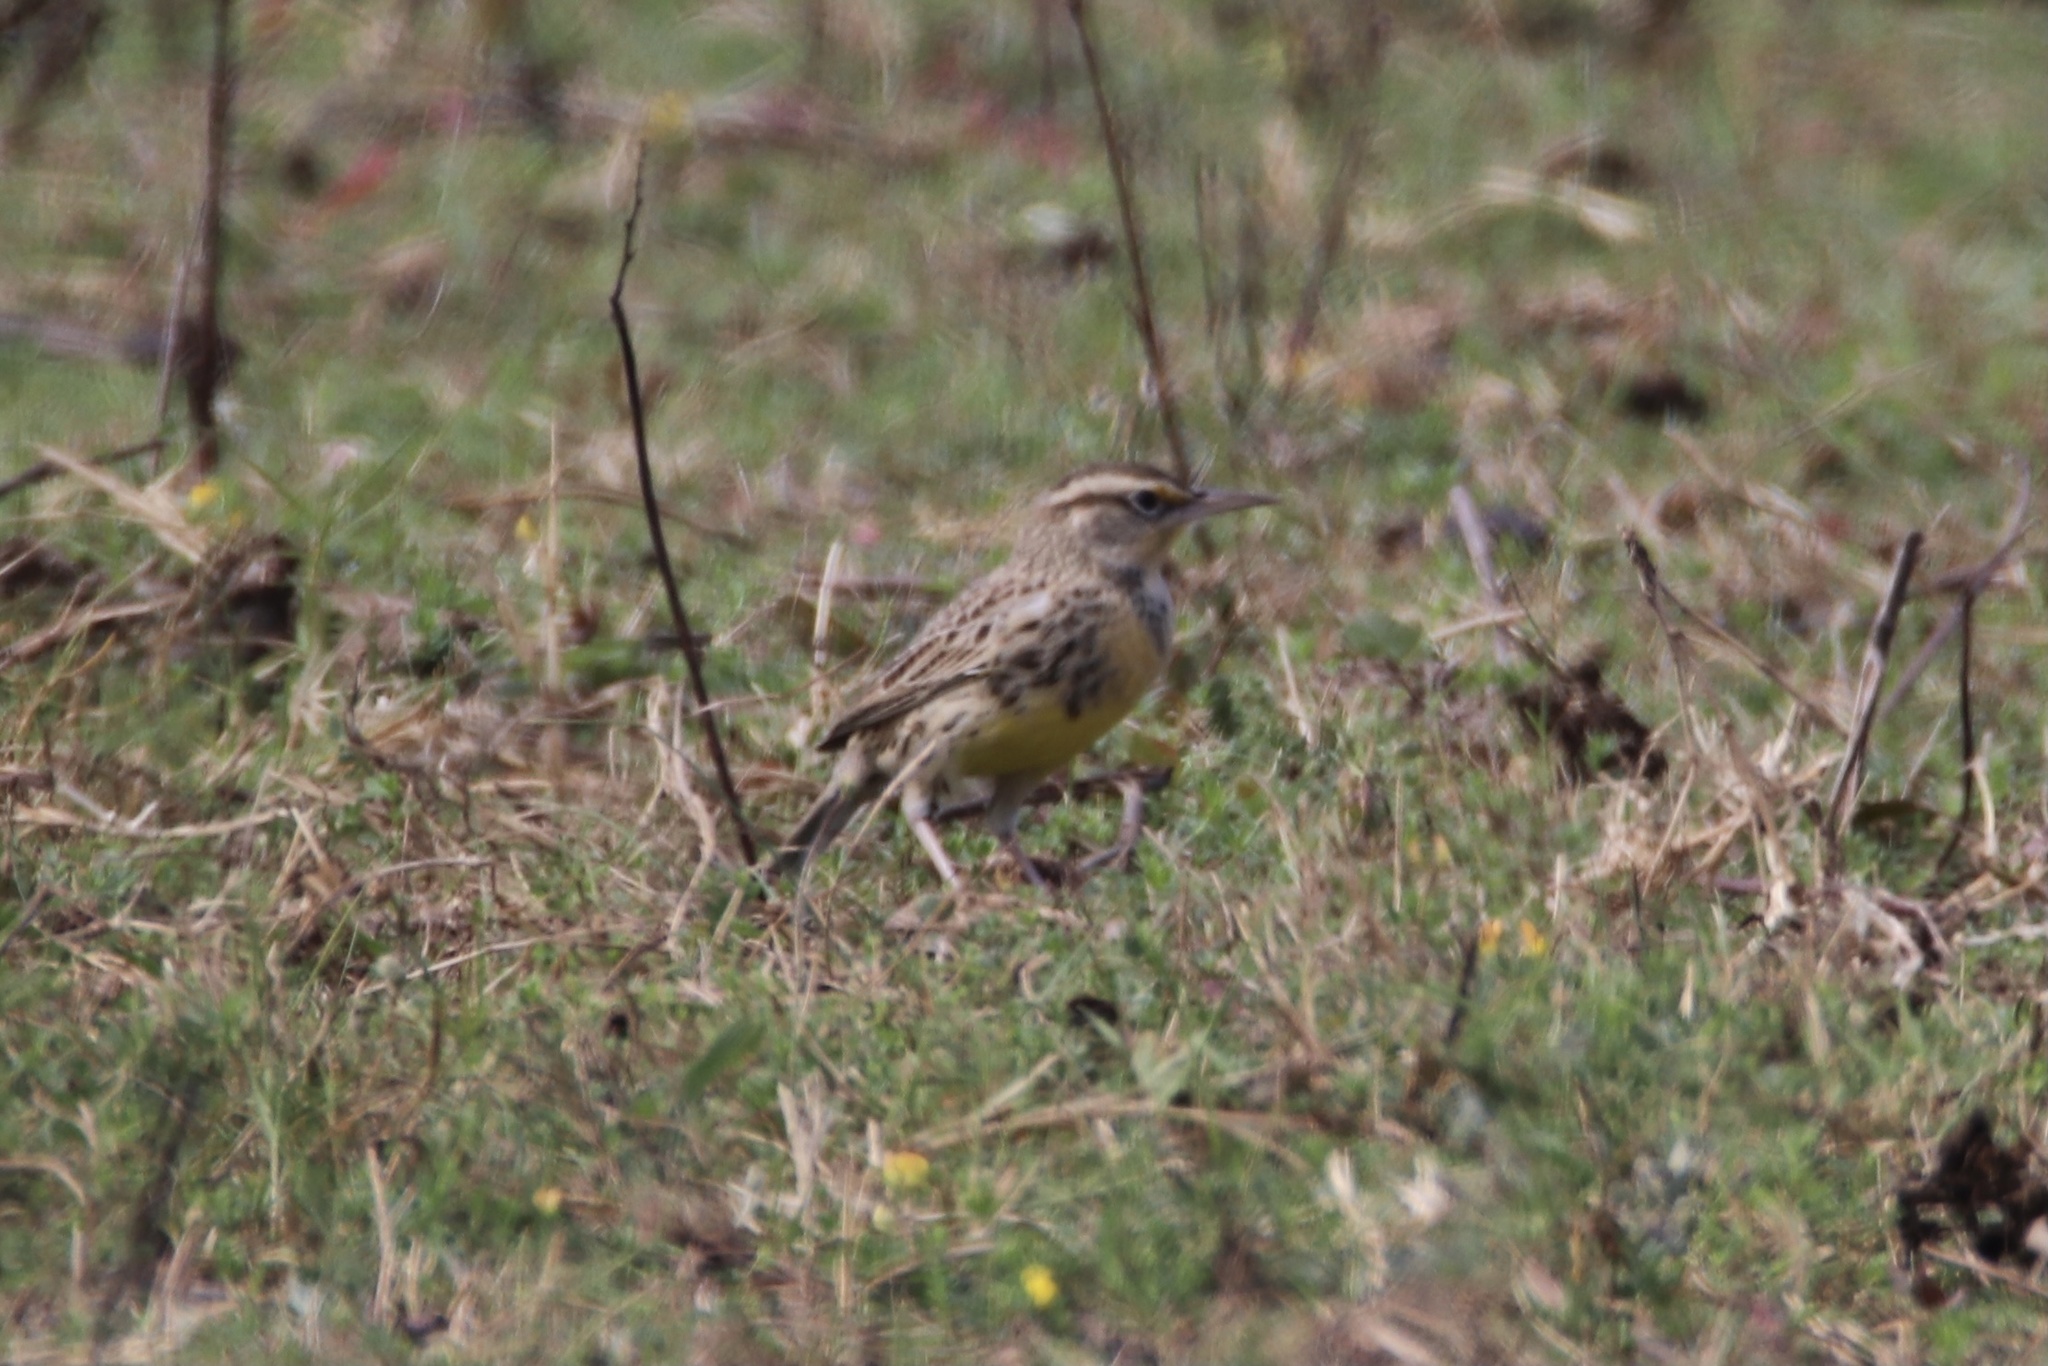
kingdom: Animalia
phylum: Chordata
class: Aves
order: Passeriformes
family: Icteridae
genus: Sturnella
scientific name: Sturnella neglecta
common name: Western meadowlark
